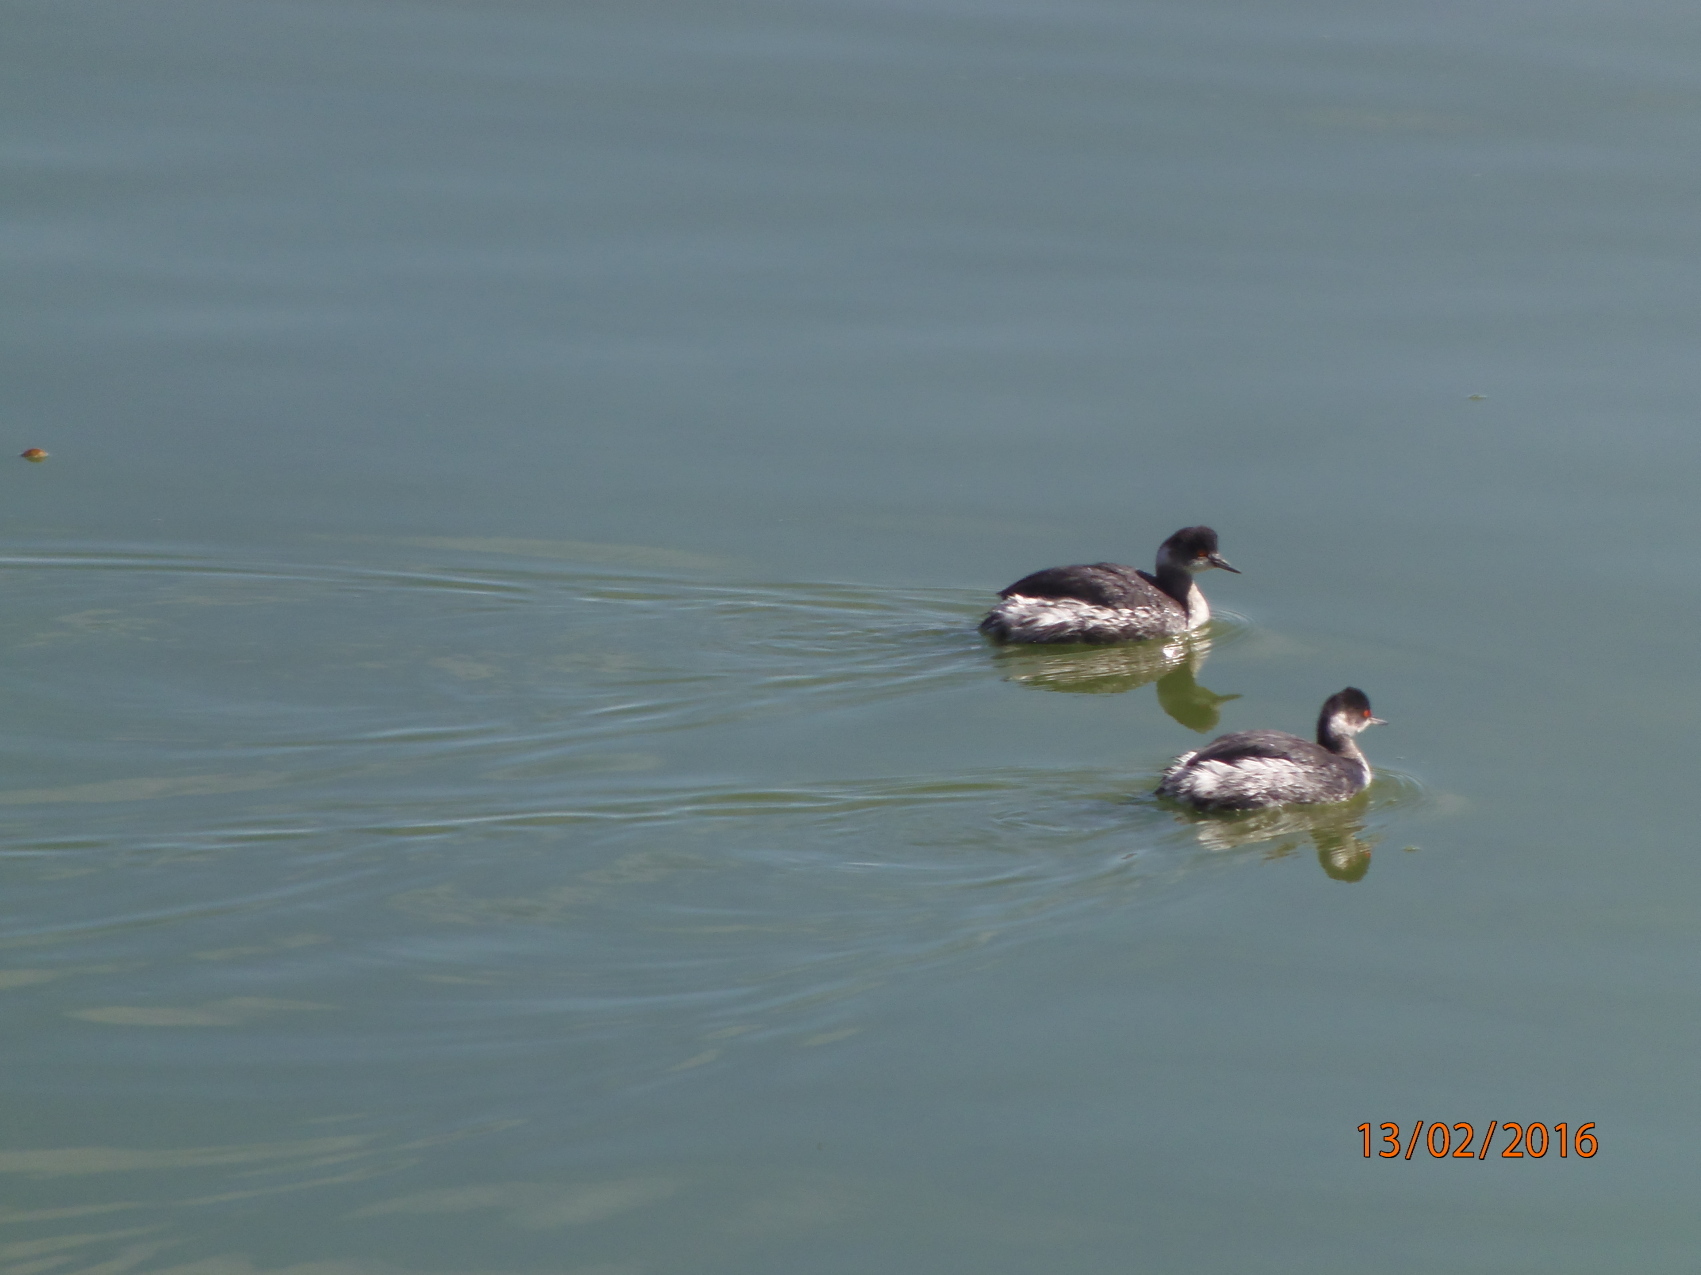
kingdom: Animalia
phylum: Chordata
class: Aves
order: Podicipediformes
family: Podicipedidae
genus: Podiceps
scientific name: Podiceps nigricollis
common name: Black-necked grebe
